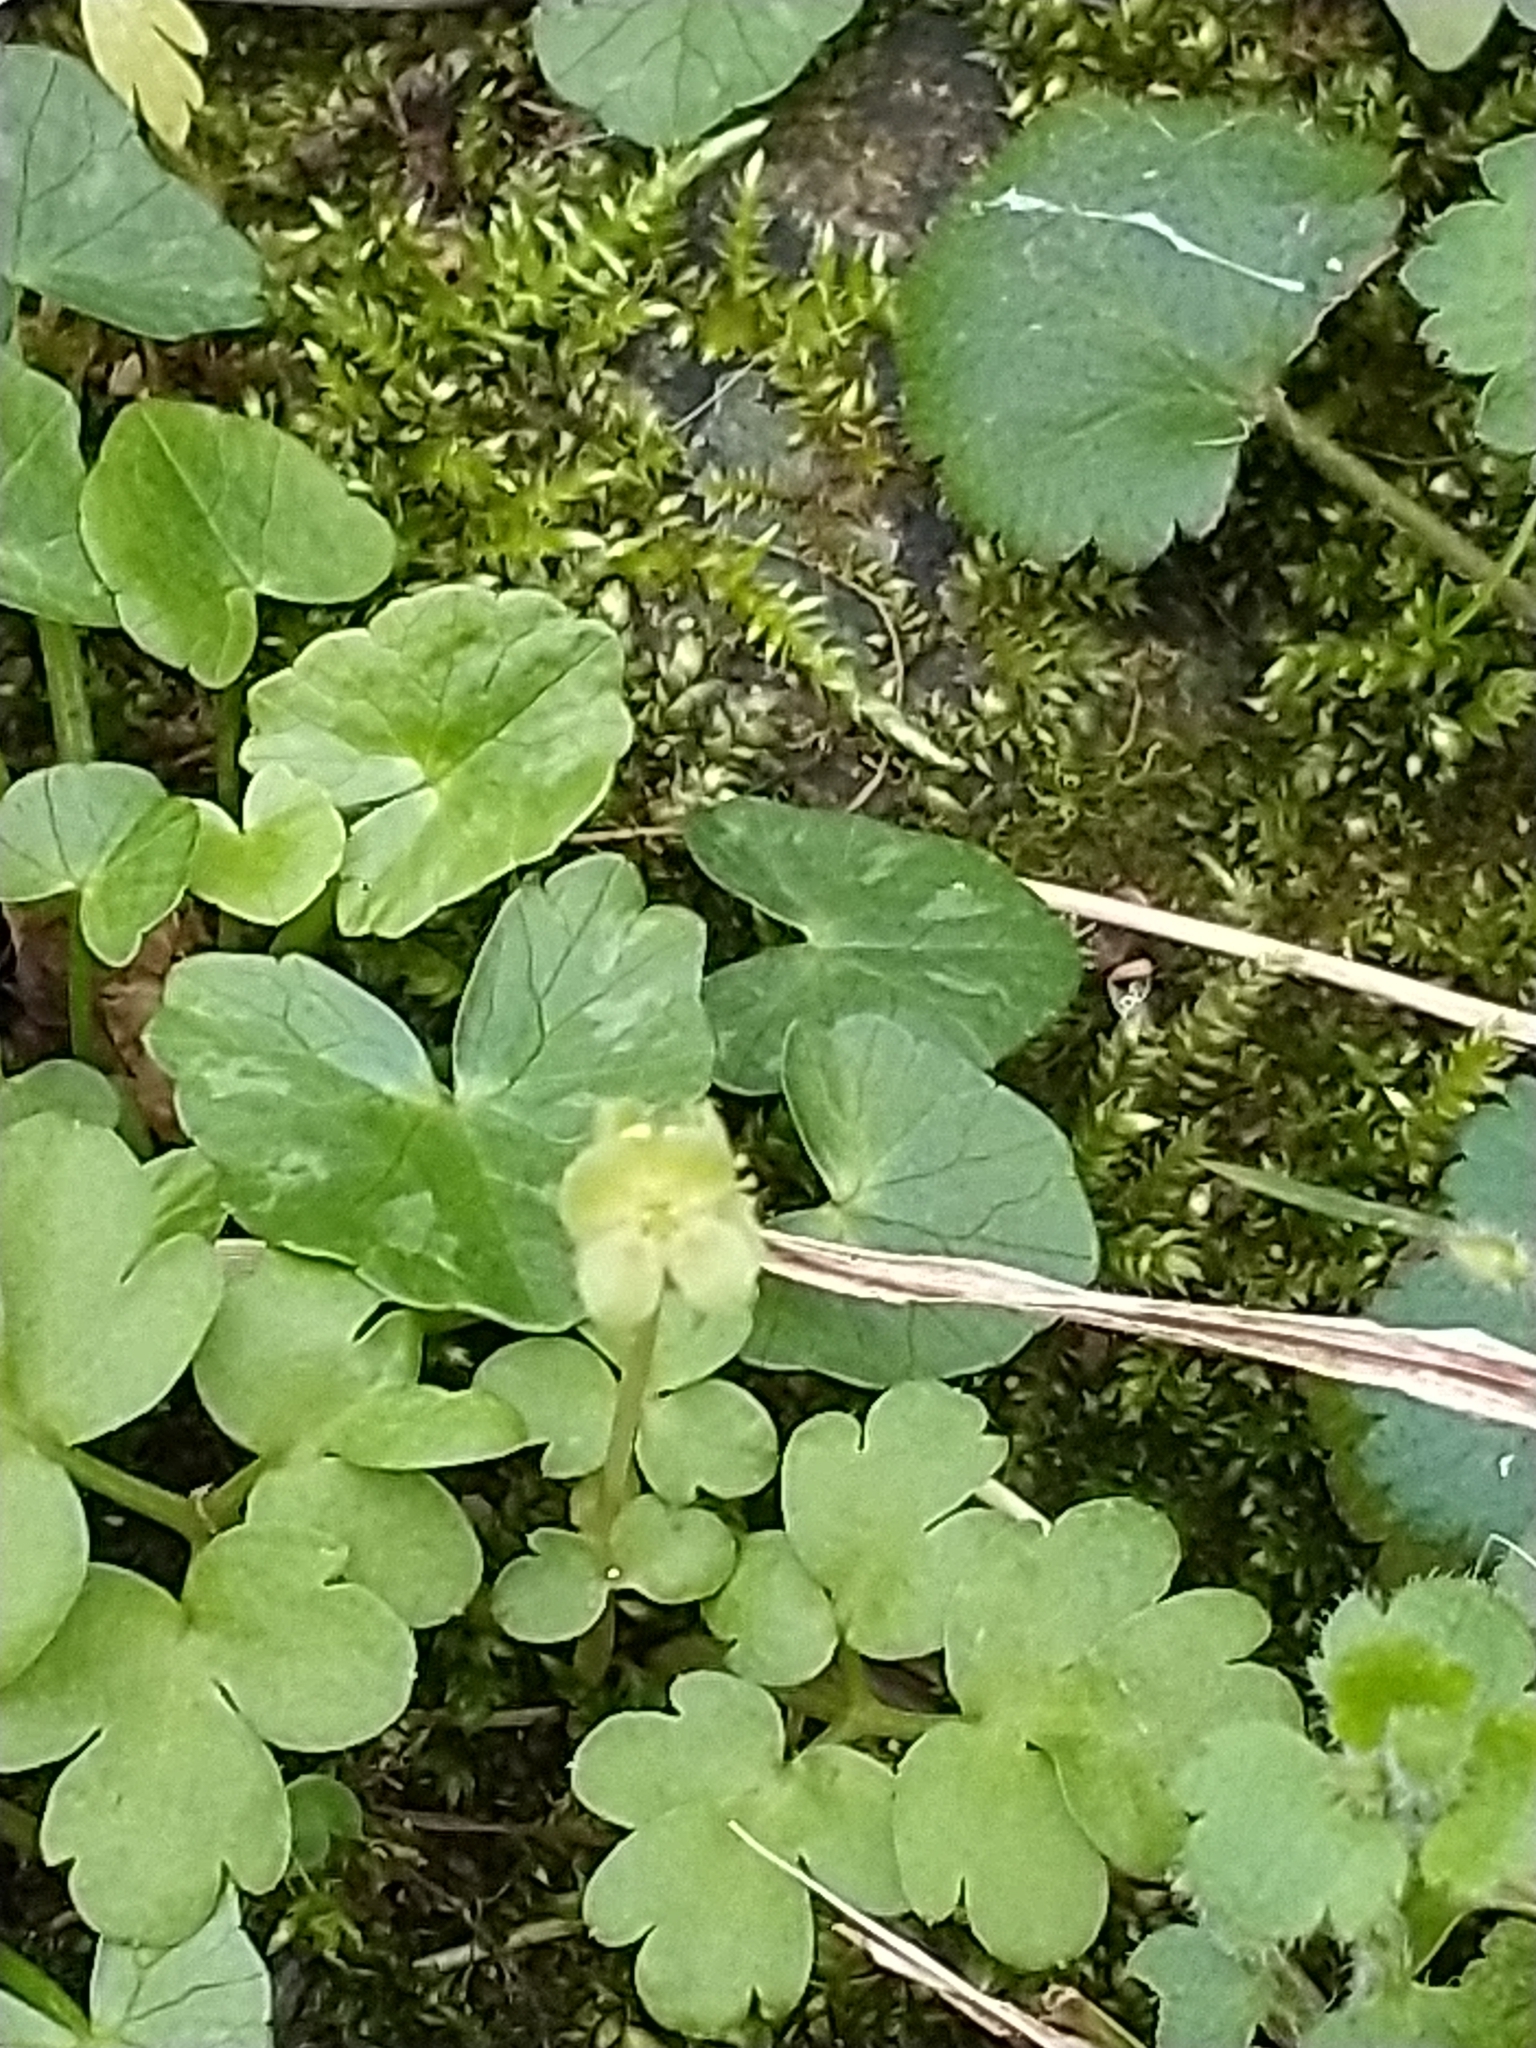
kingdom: Plantae
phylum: Tracheophyta
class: Magnoliopsida
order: Dipsacales
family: Viburnaceae
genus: Adoxa
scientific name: Adoxa moschatellina
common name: Moschatel
